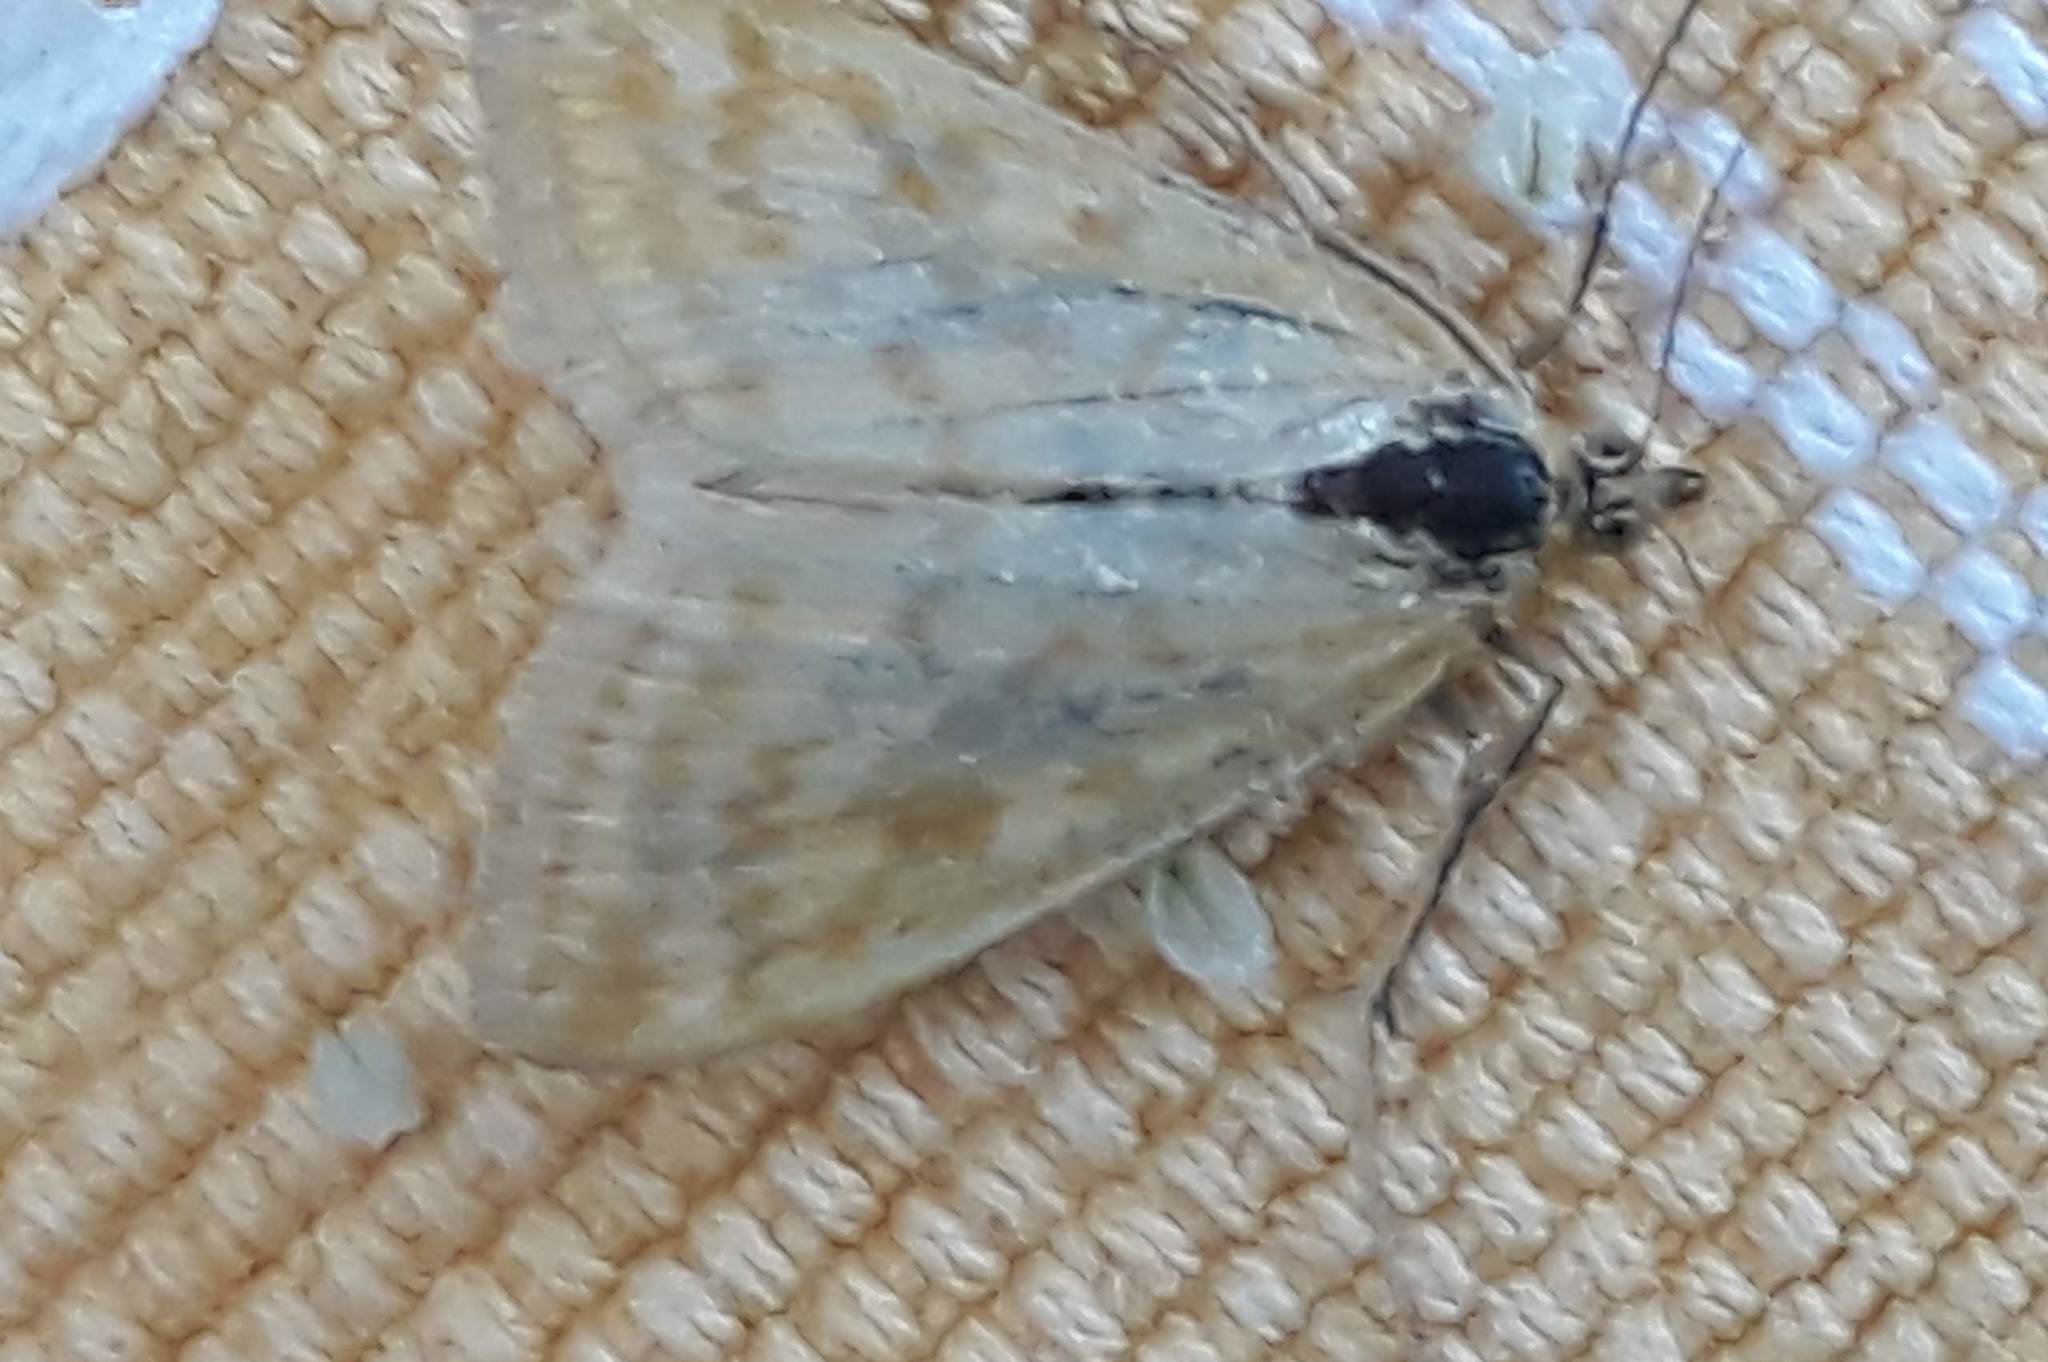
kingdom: Animalia
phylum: Arthropoda
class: Insecta
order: Lepidoptera
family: Crambidae
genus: Sitochroa
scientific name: Sitochroa verticalis
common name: Lesser pearl
